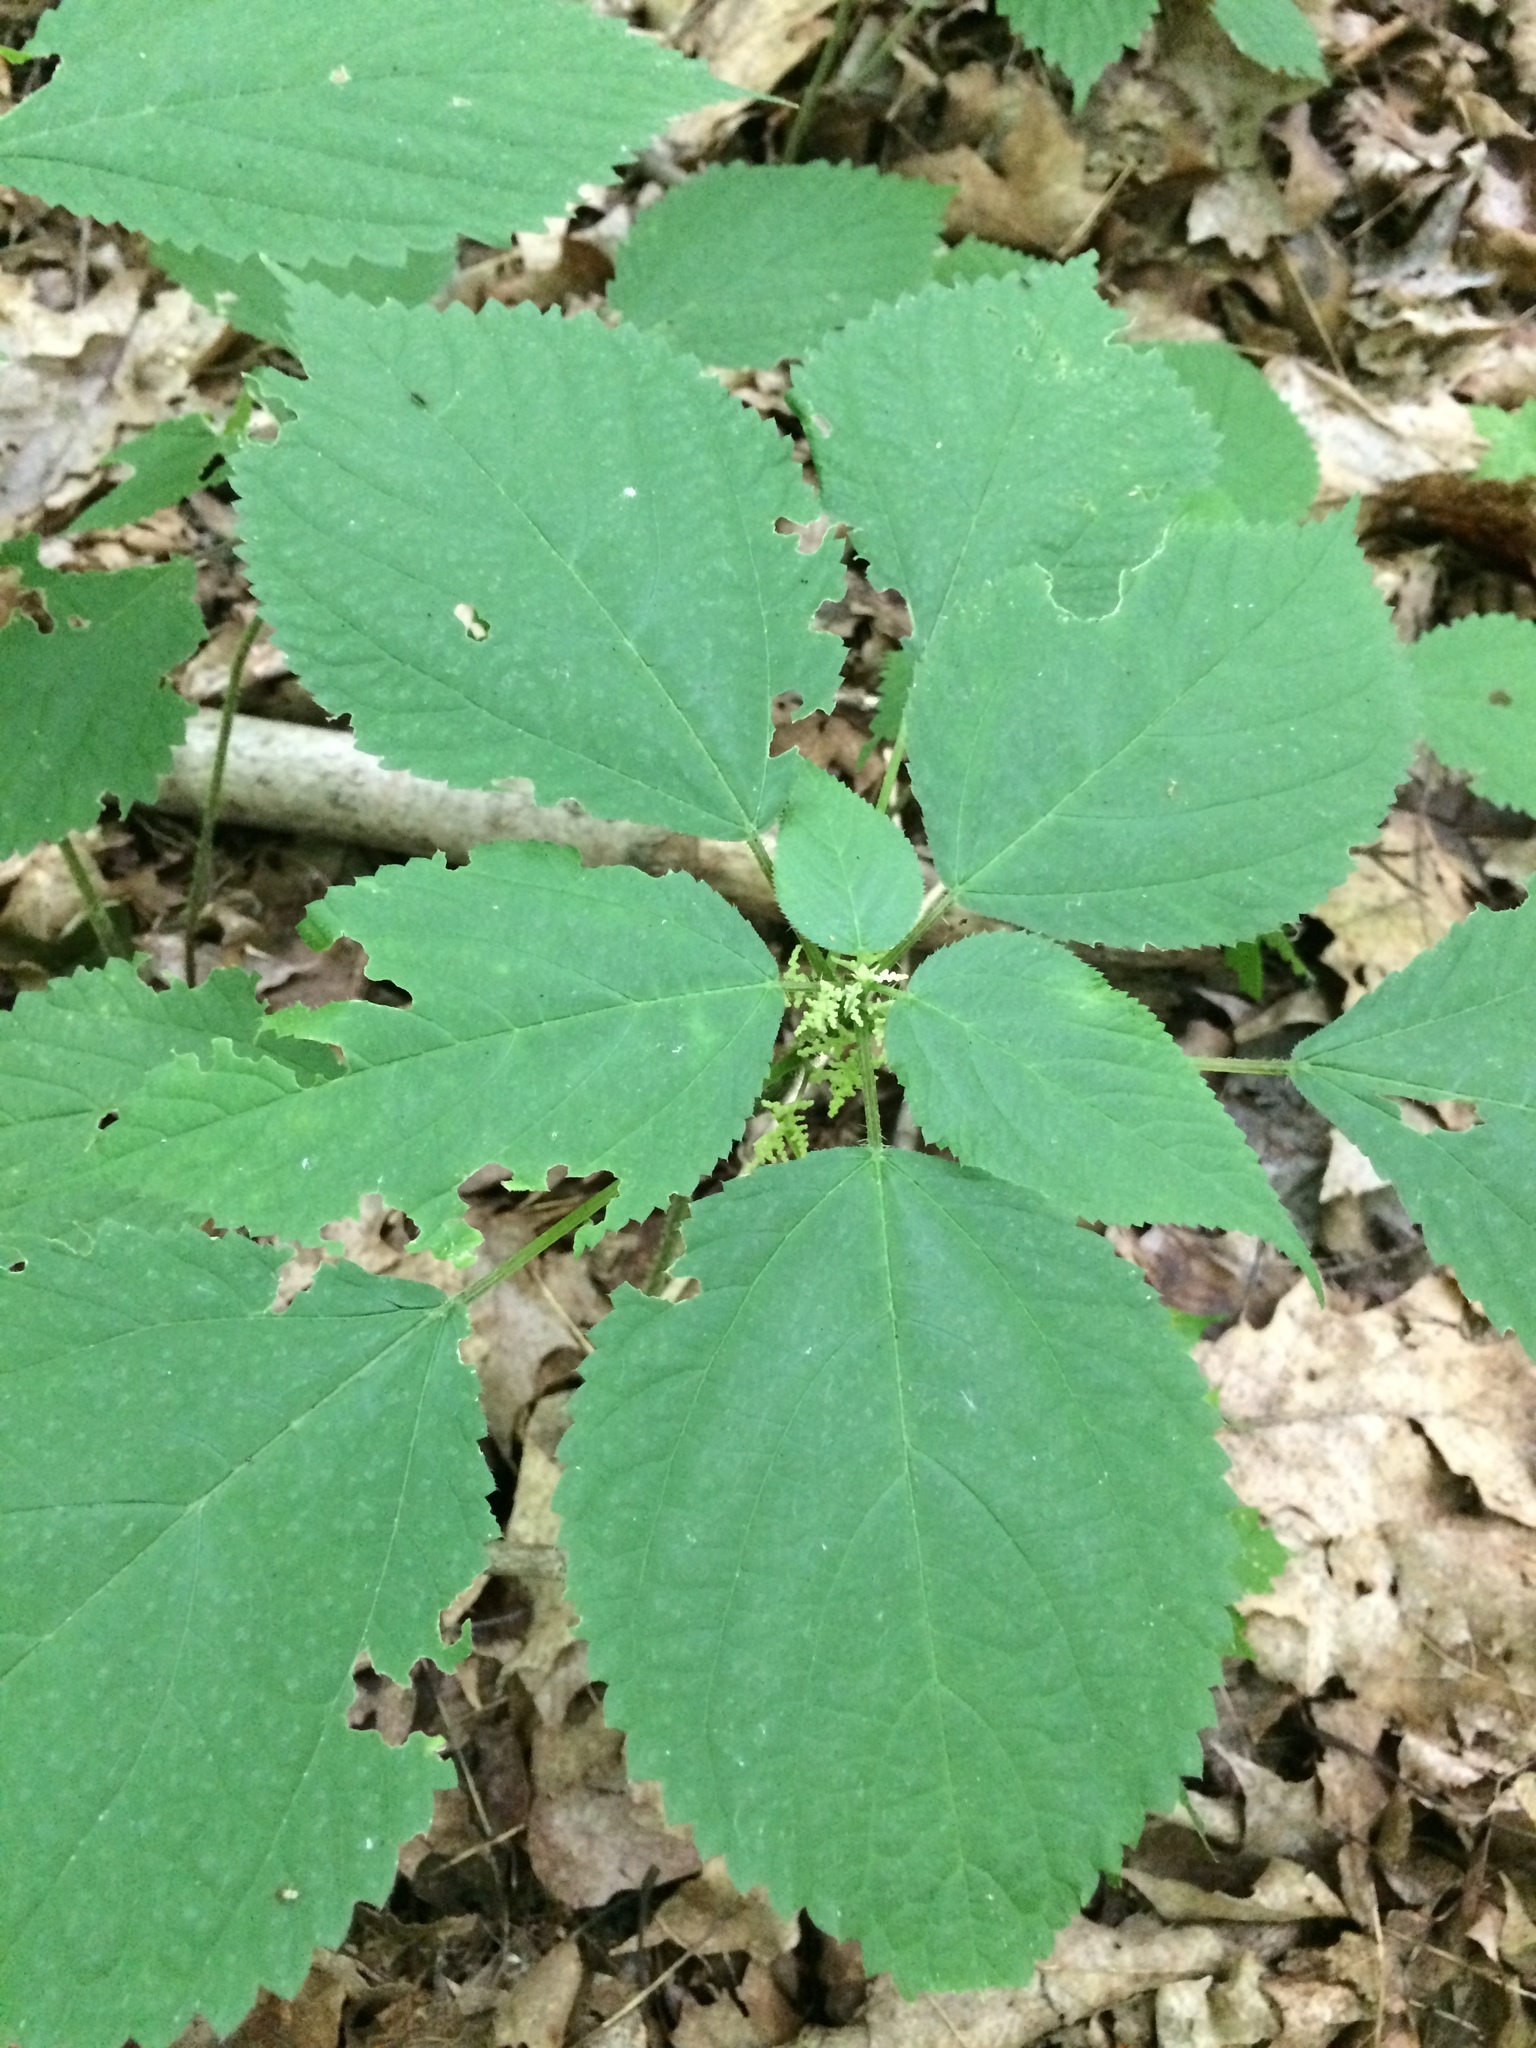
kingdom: Plantae
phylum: Tracheophyta
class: Magnoliopsida
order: Rosales
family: Urticaceae
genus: Laportea
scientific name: Laportea canadensis
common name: Canada nettle
